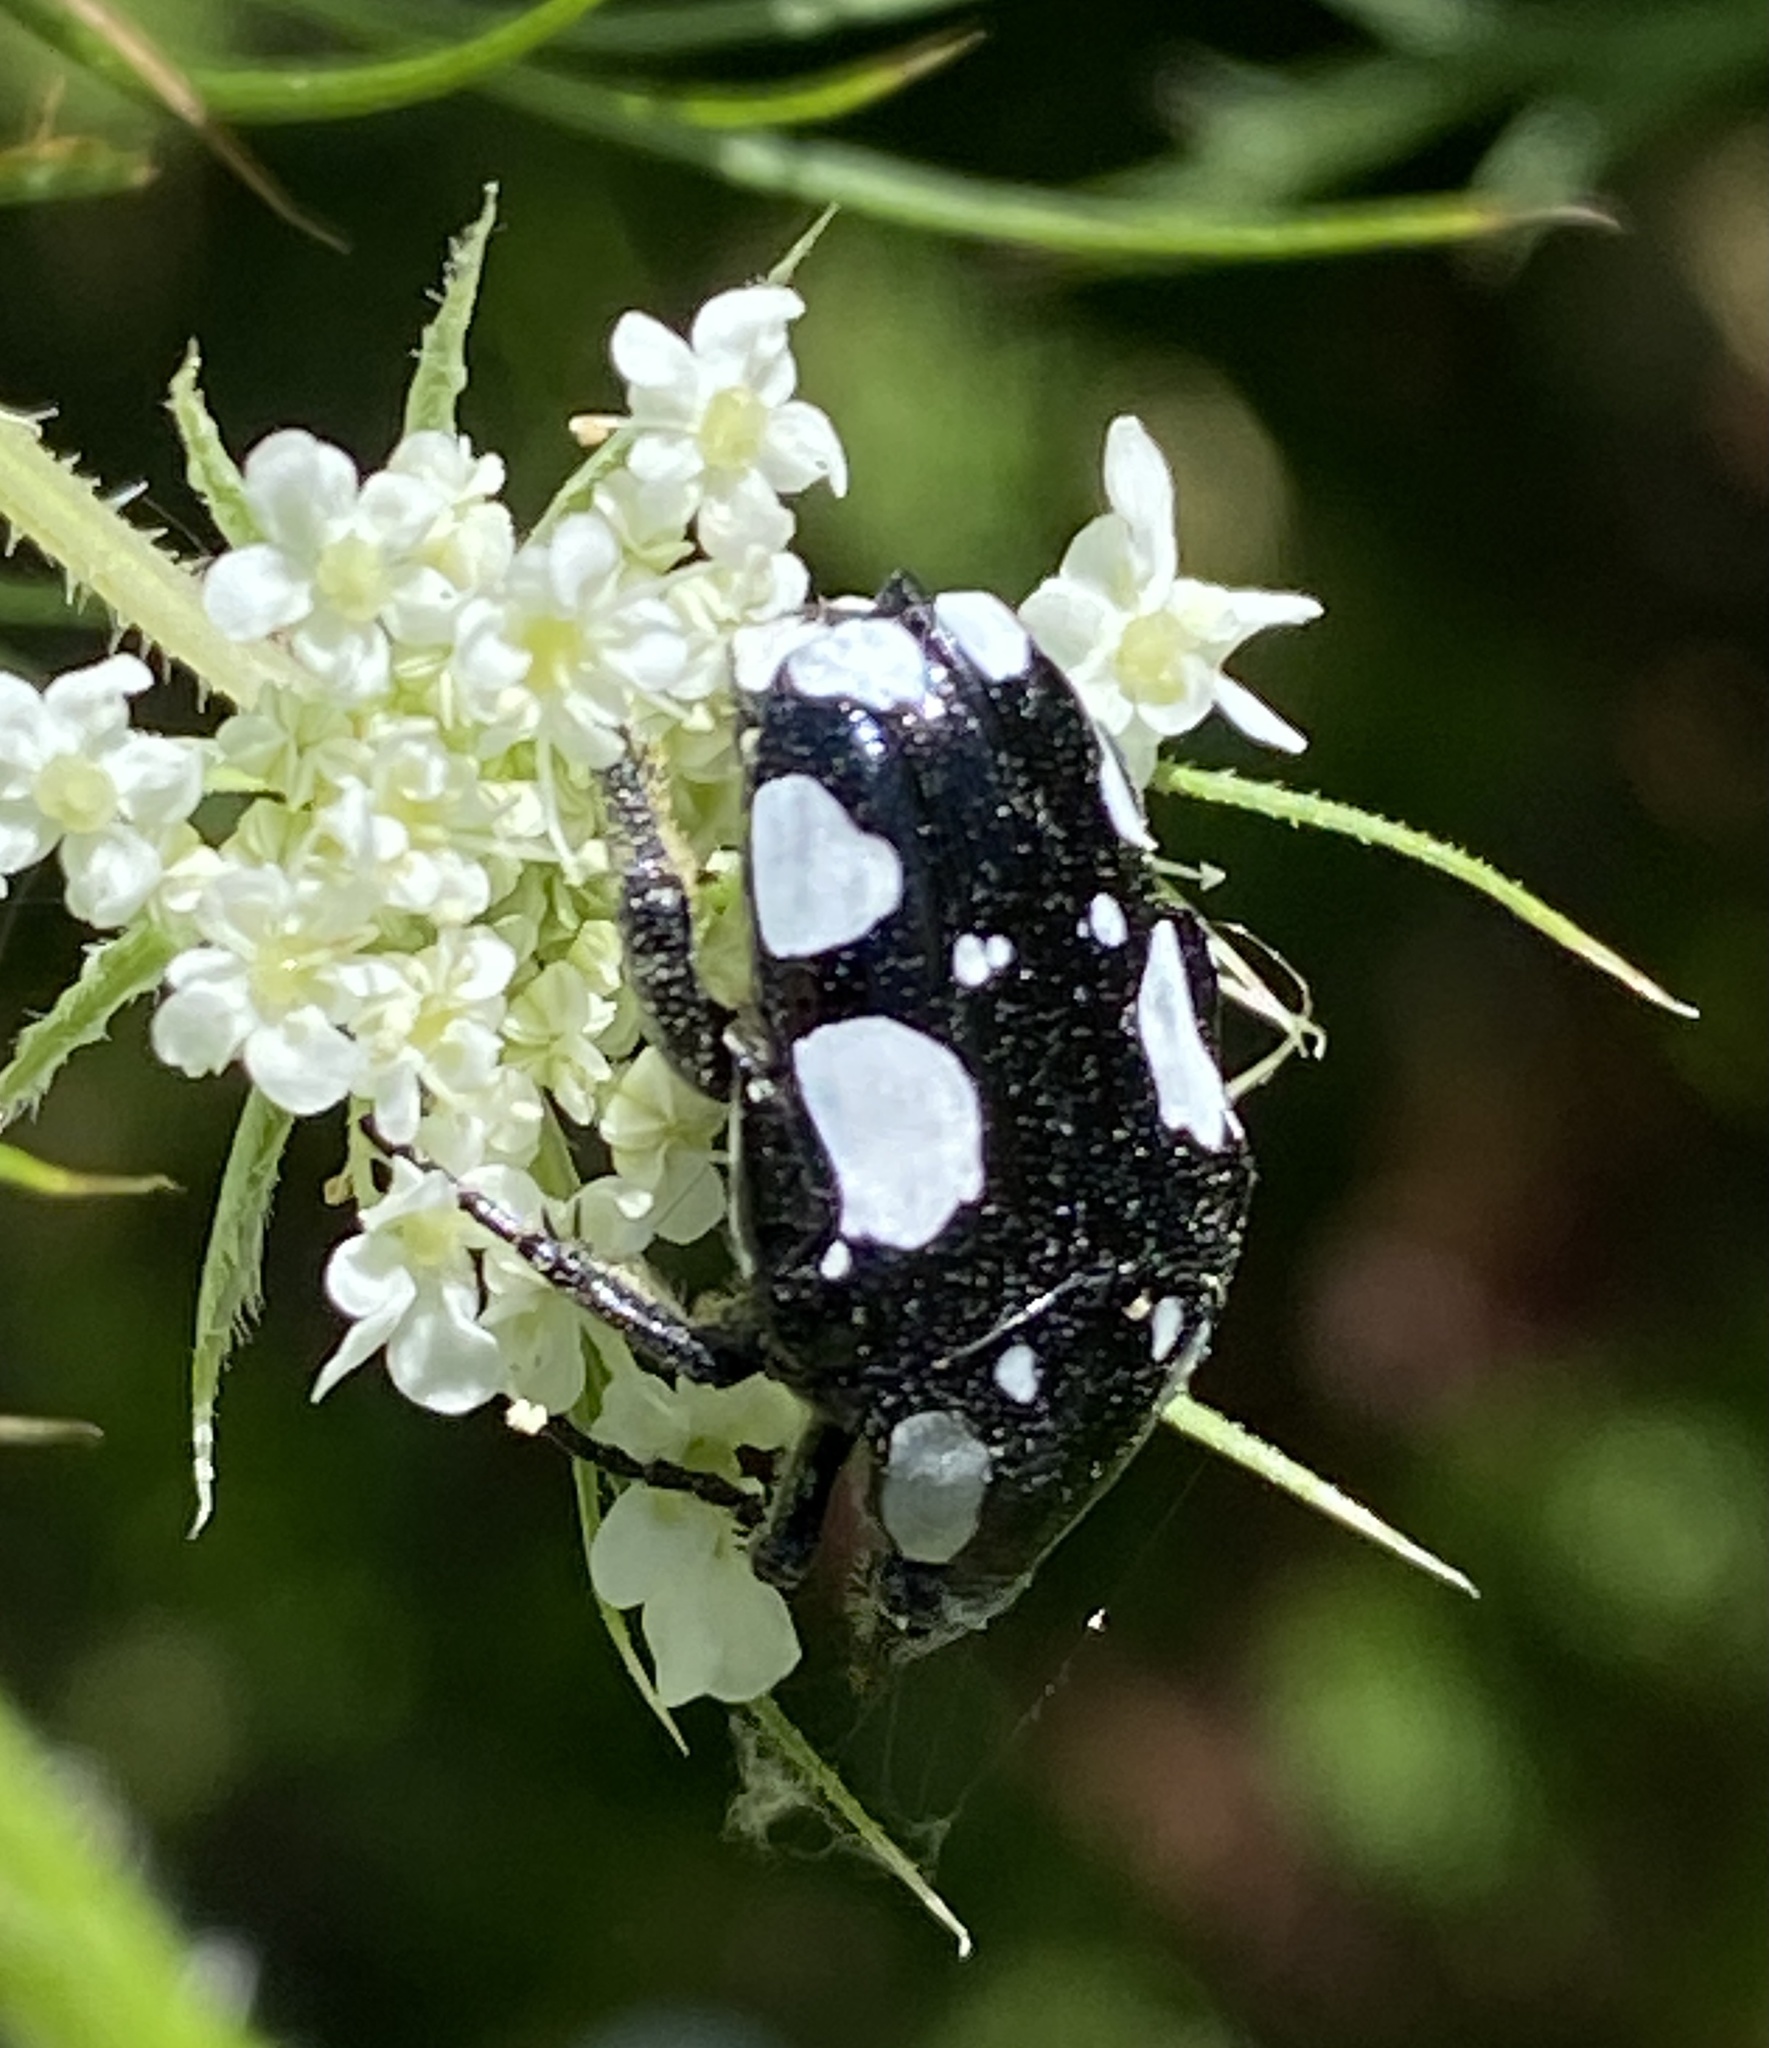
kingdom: Animalia
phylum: Arthropoda
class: Insecta
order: Coleoptera
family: Scarabaeidae
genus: Mausoleopsis
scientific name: Mausoleopsis amabilis
